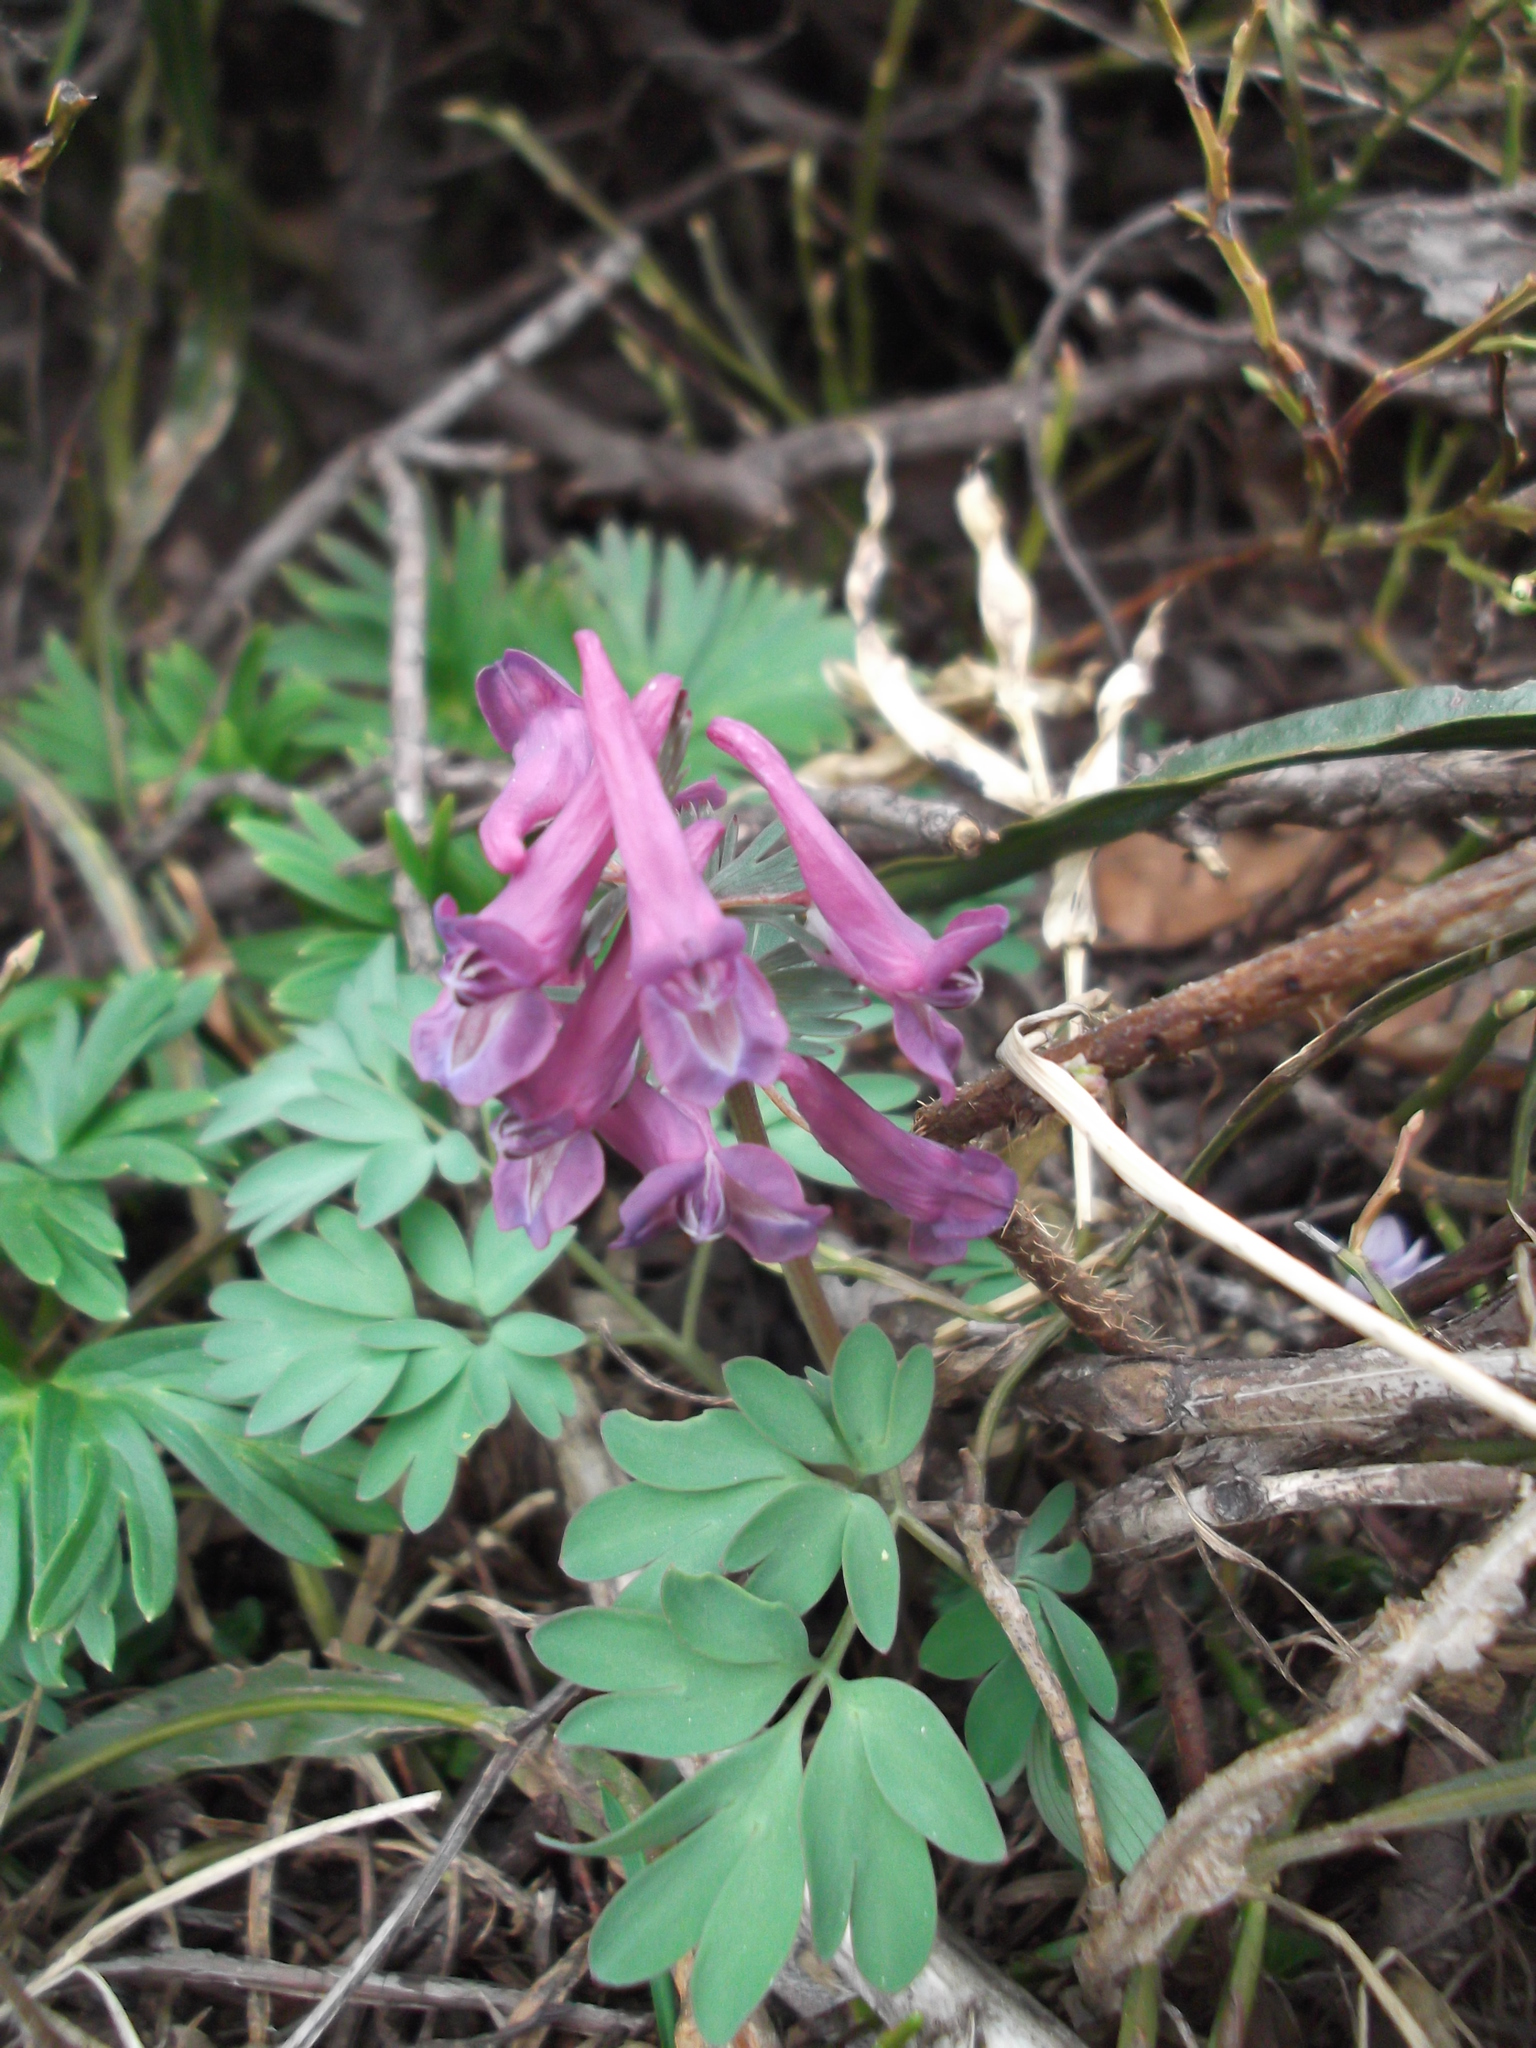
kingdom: Plantae
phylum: Tracheophyta
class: Magnoliopsida
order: Ranunculales
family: Papaveraceae
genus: Corydalis
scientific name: Corydalis solida
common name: Bird-in-a-bush
